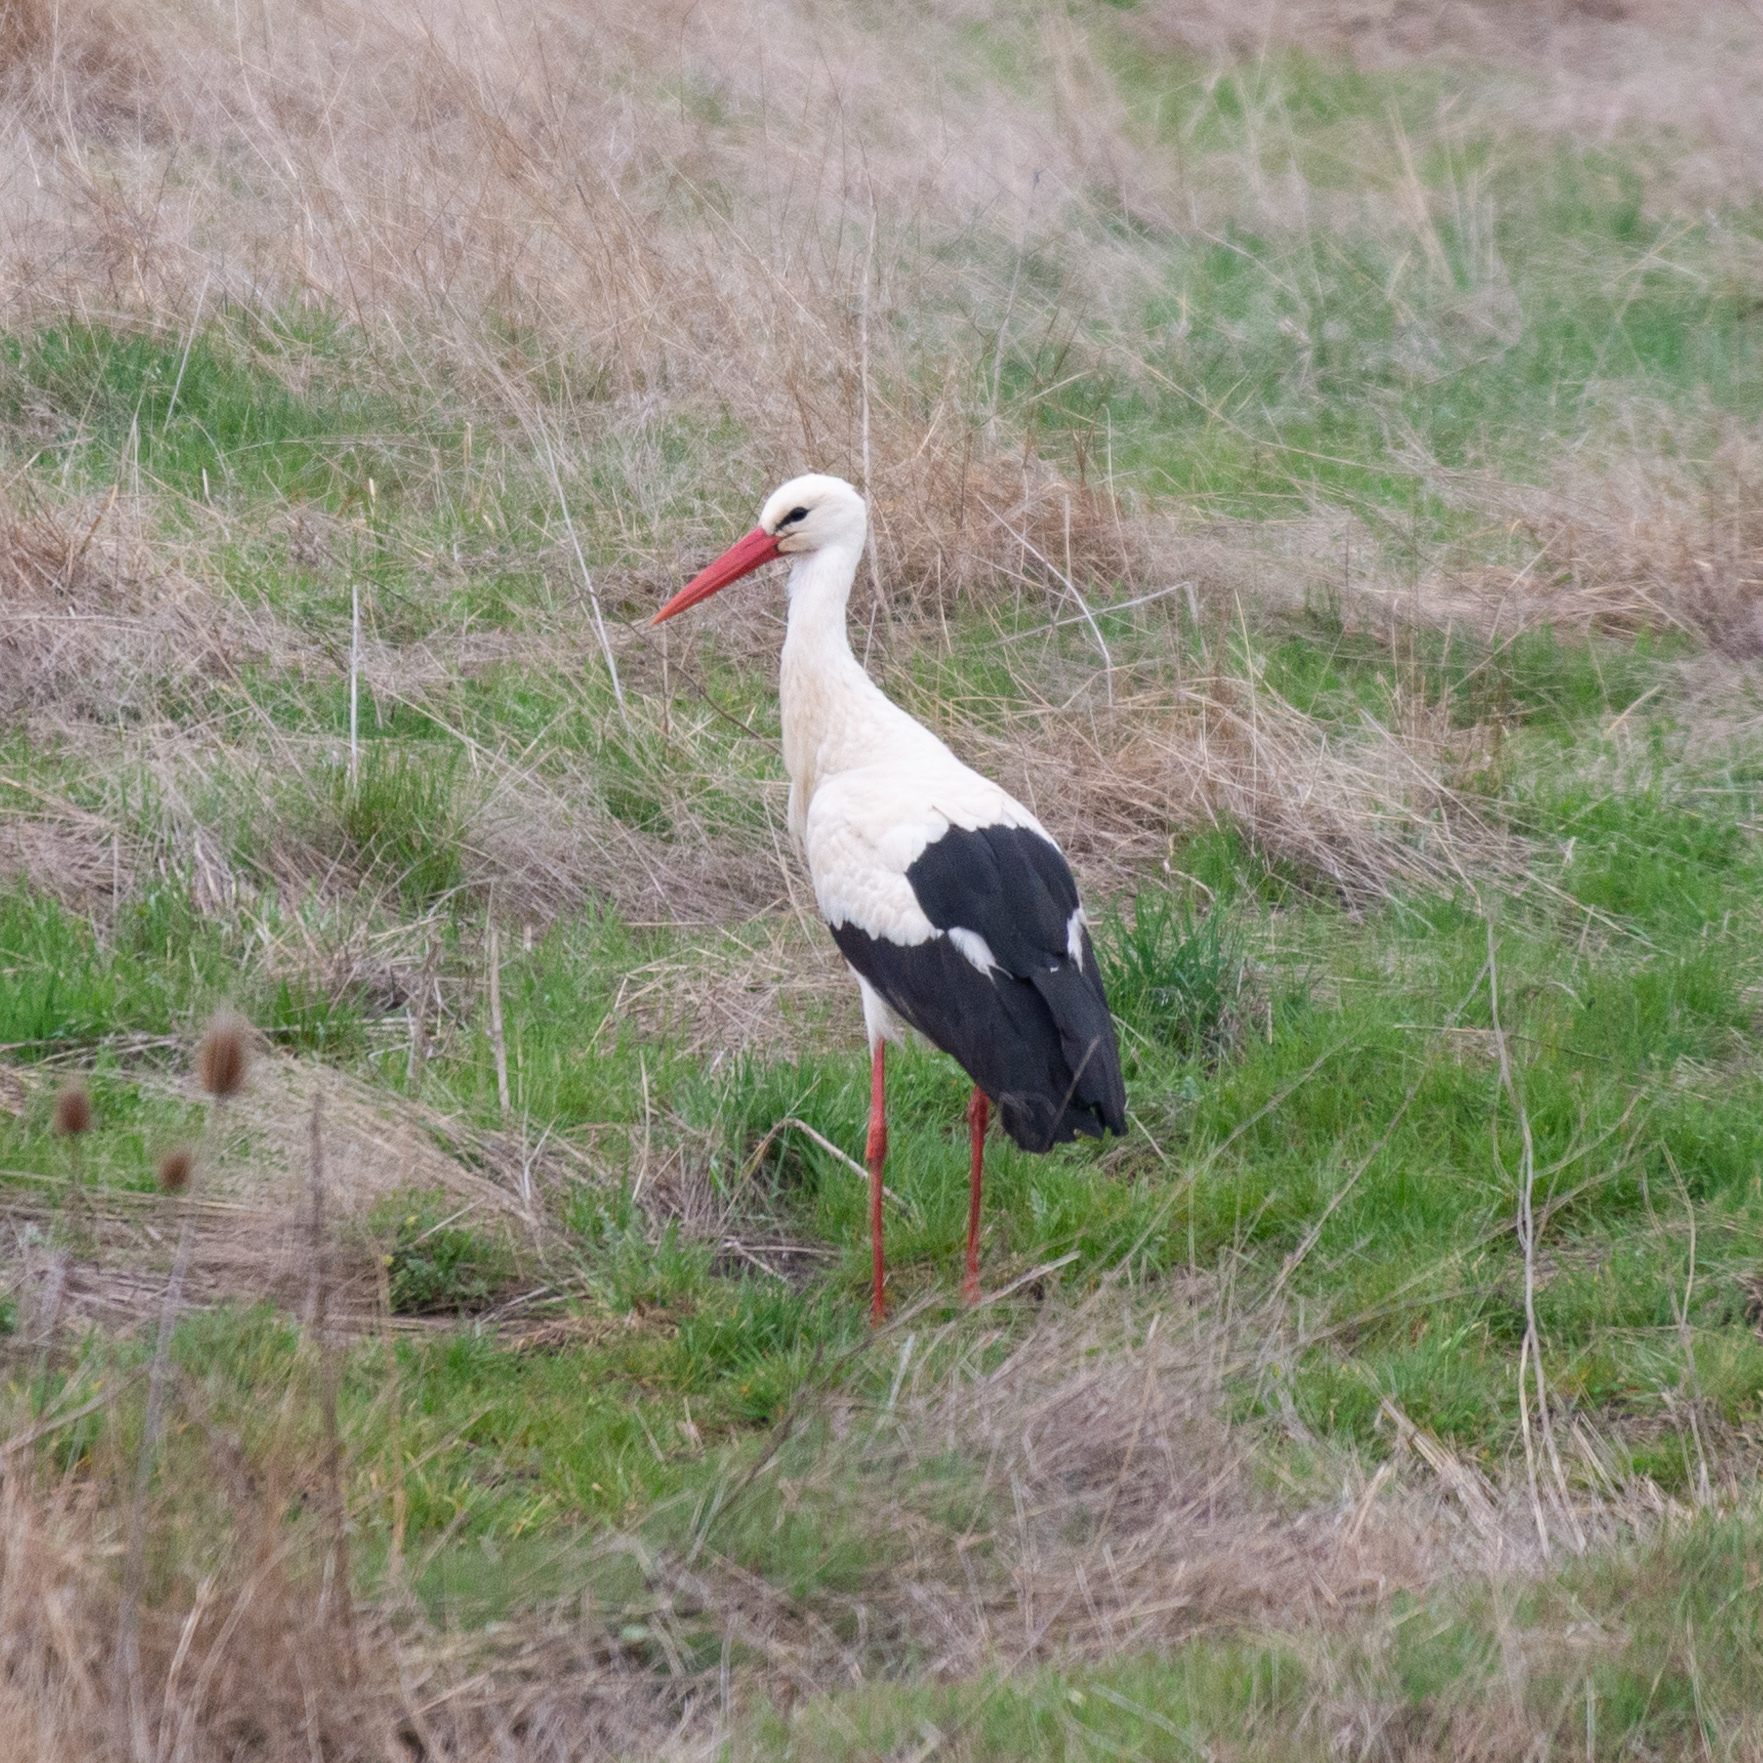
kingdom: Animalia
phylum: Chordata
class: Aves
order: Ciconiiformes
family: Ciconiidae
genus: Ciconia
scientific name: Ciconia ciconia
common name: White stork
